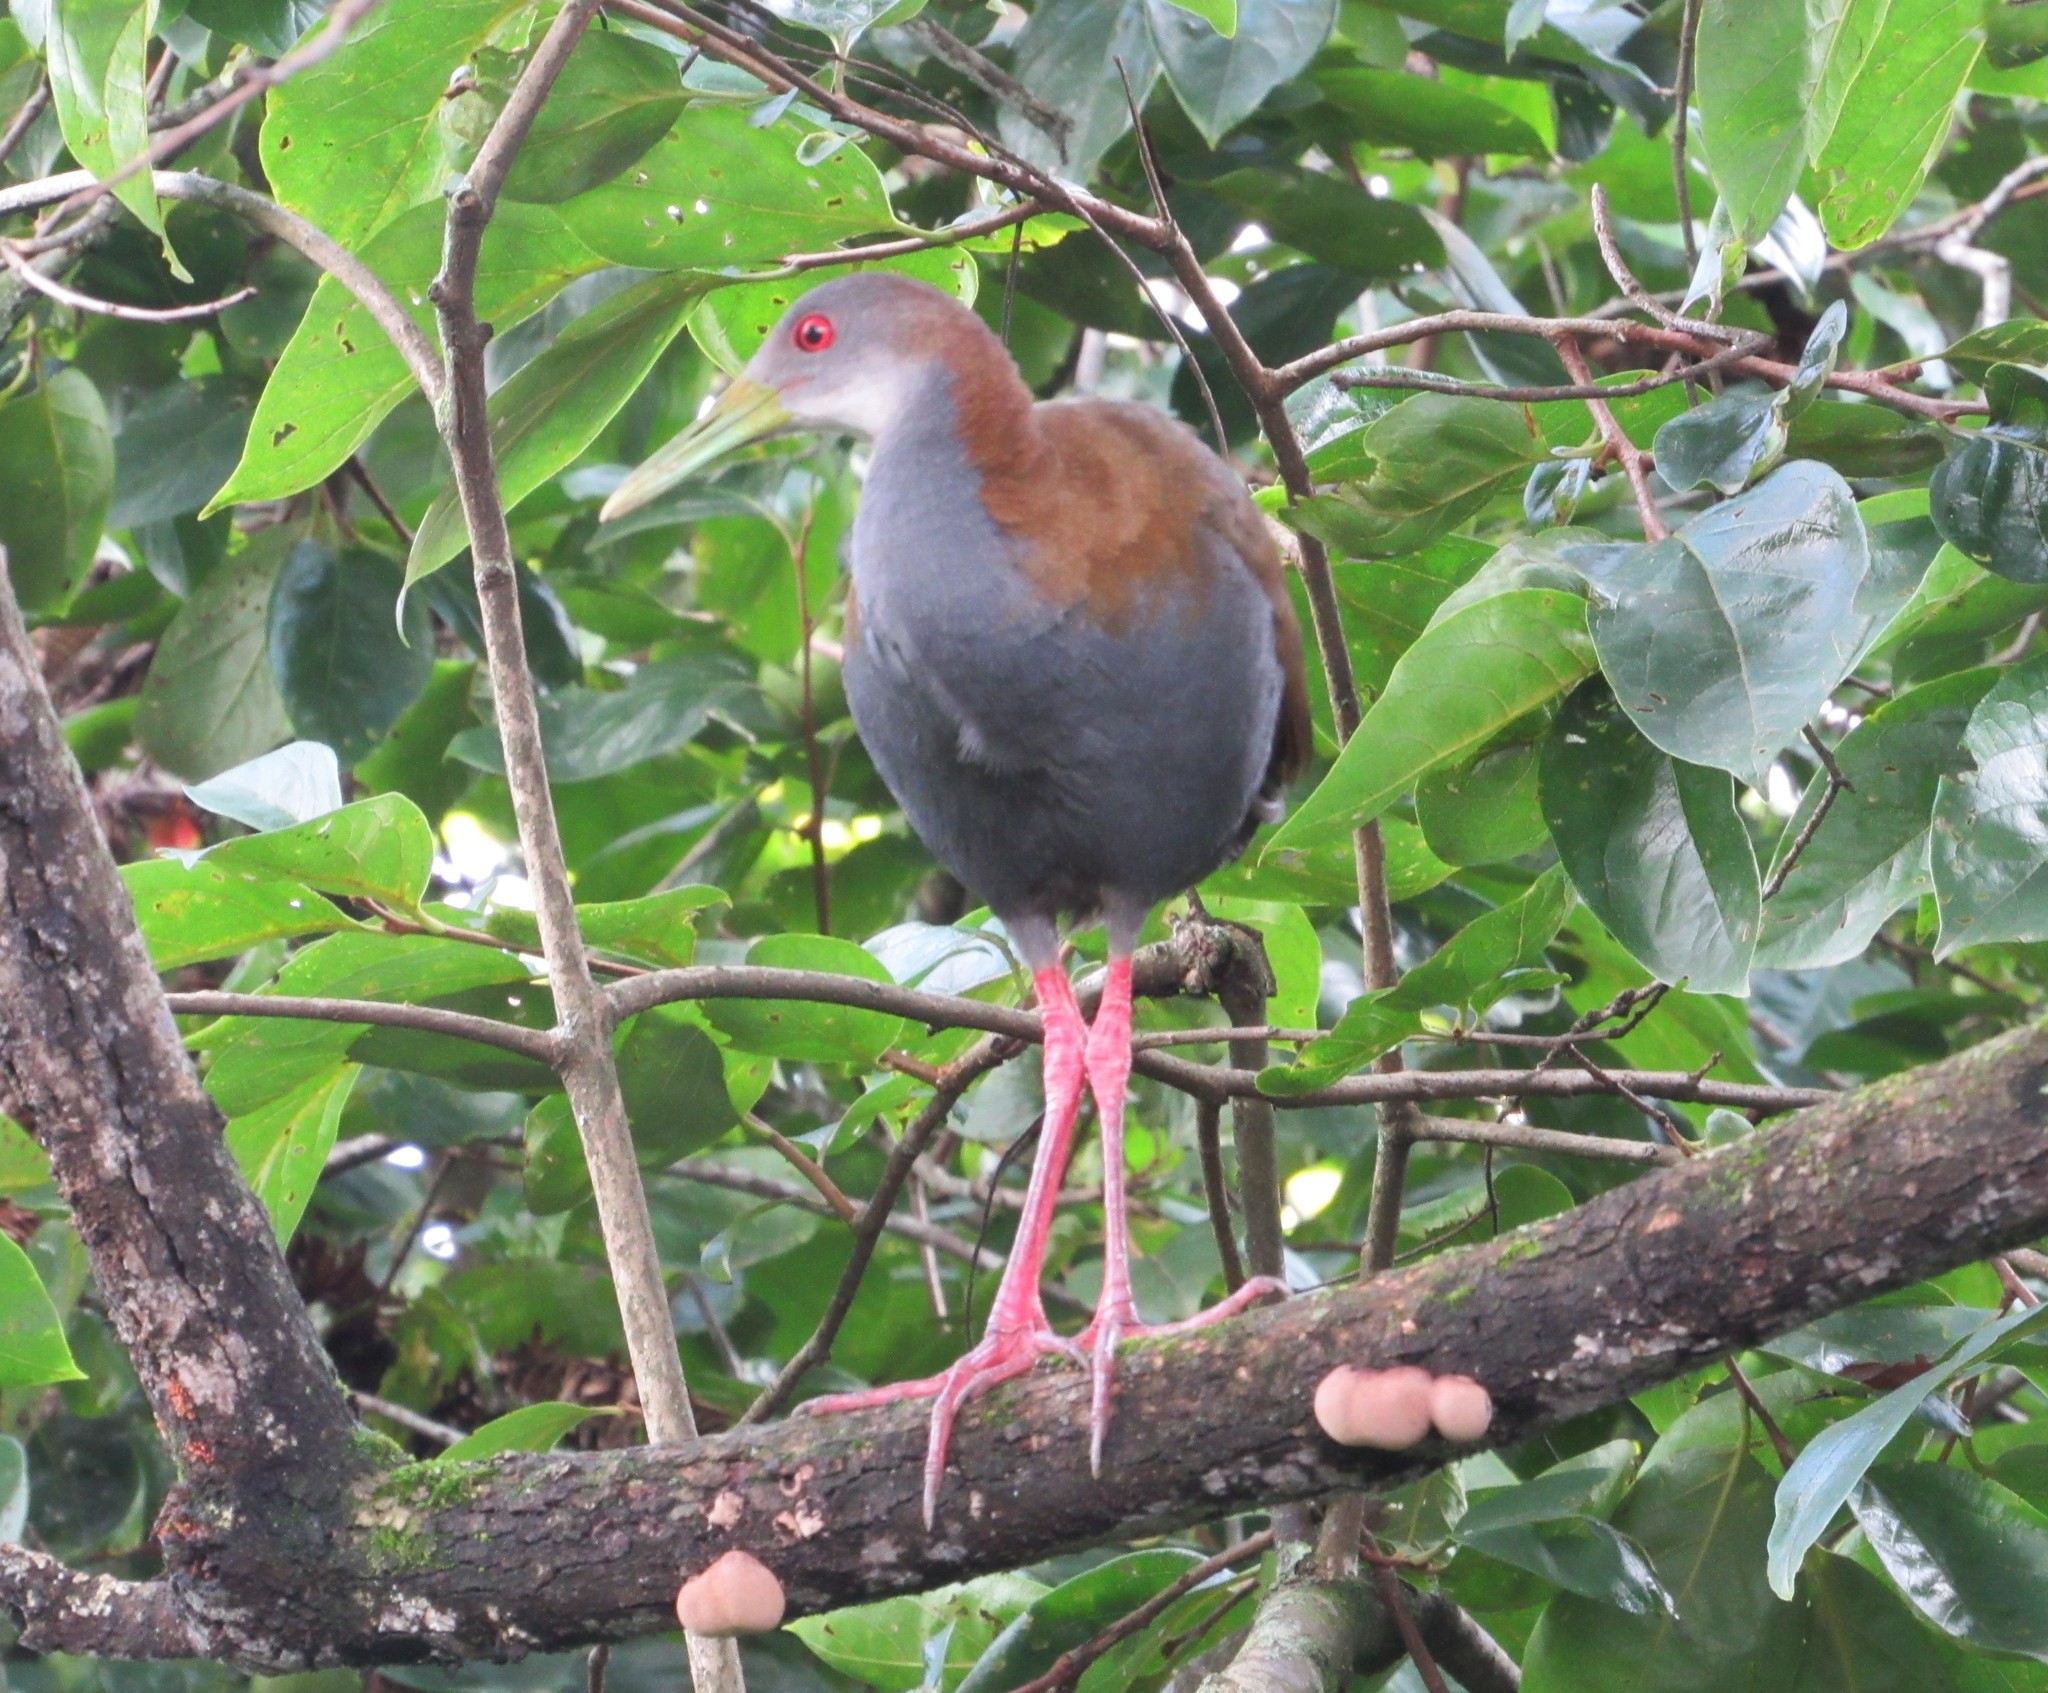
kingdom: Animalia
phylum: Chordata
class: Aves
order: Gruiformes
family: Rallidae
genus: Aramides
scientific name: Aramides saracura
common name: Slaty-breasted wood rail
